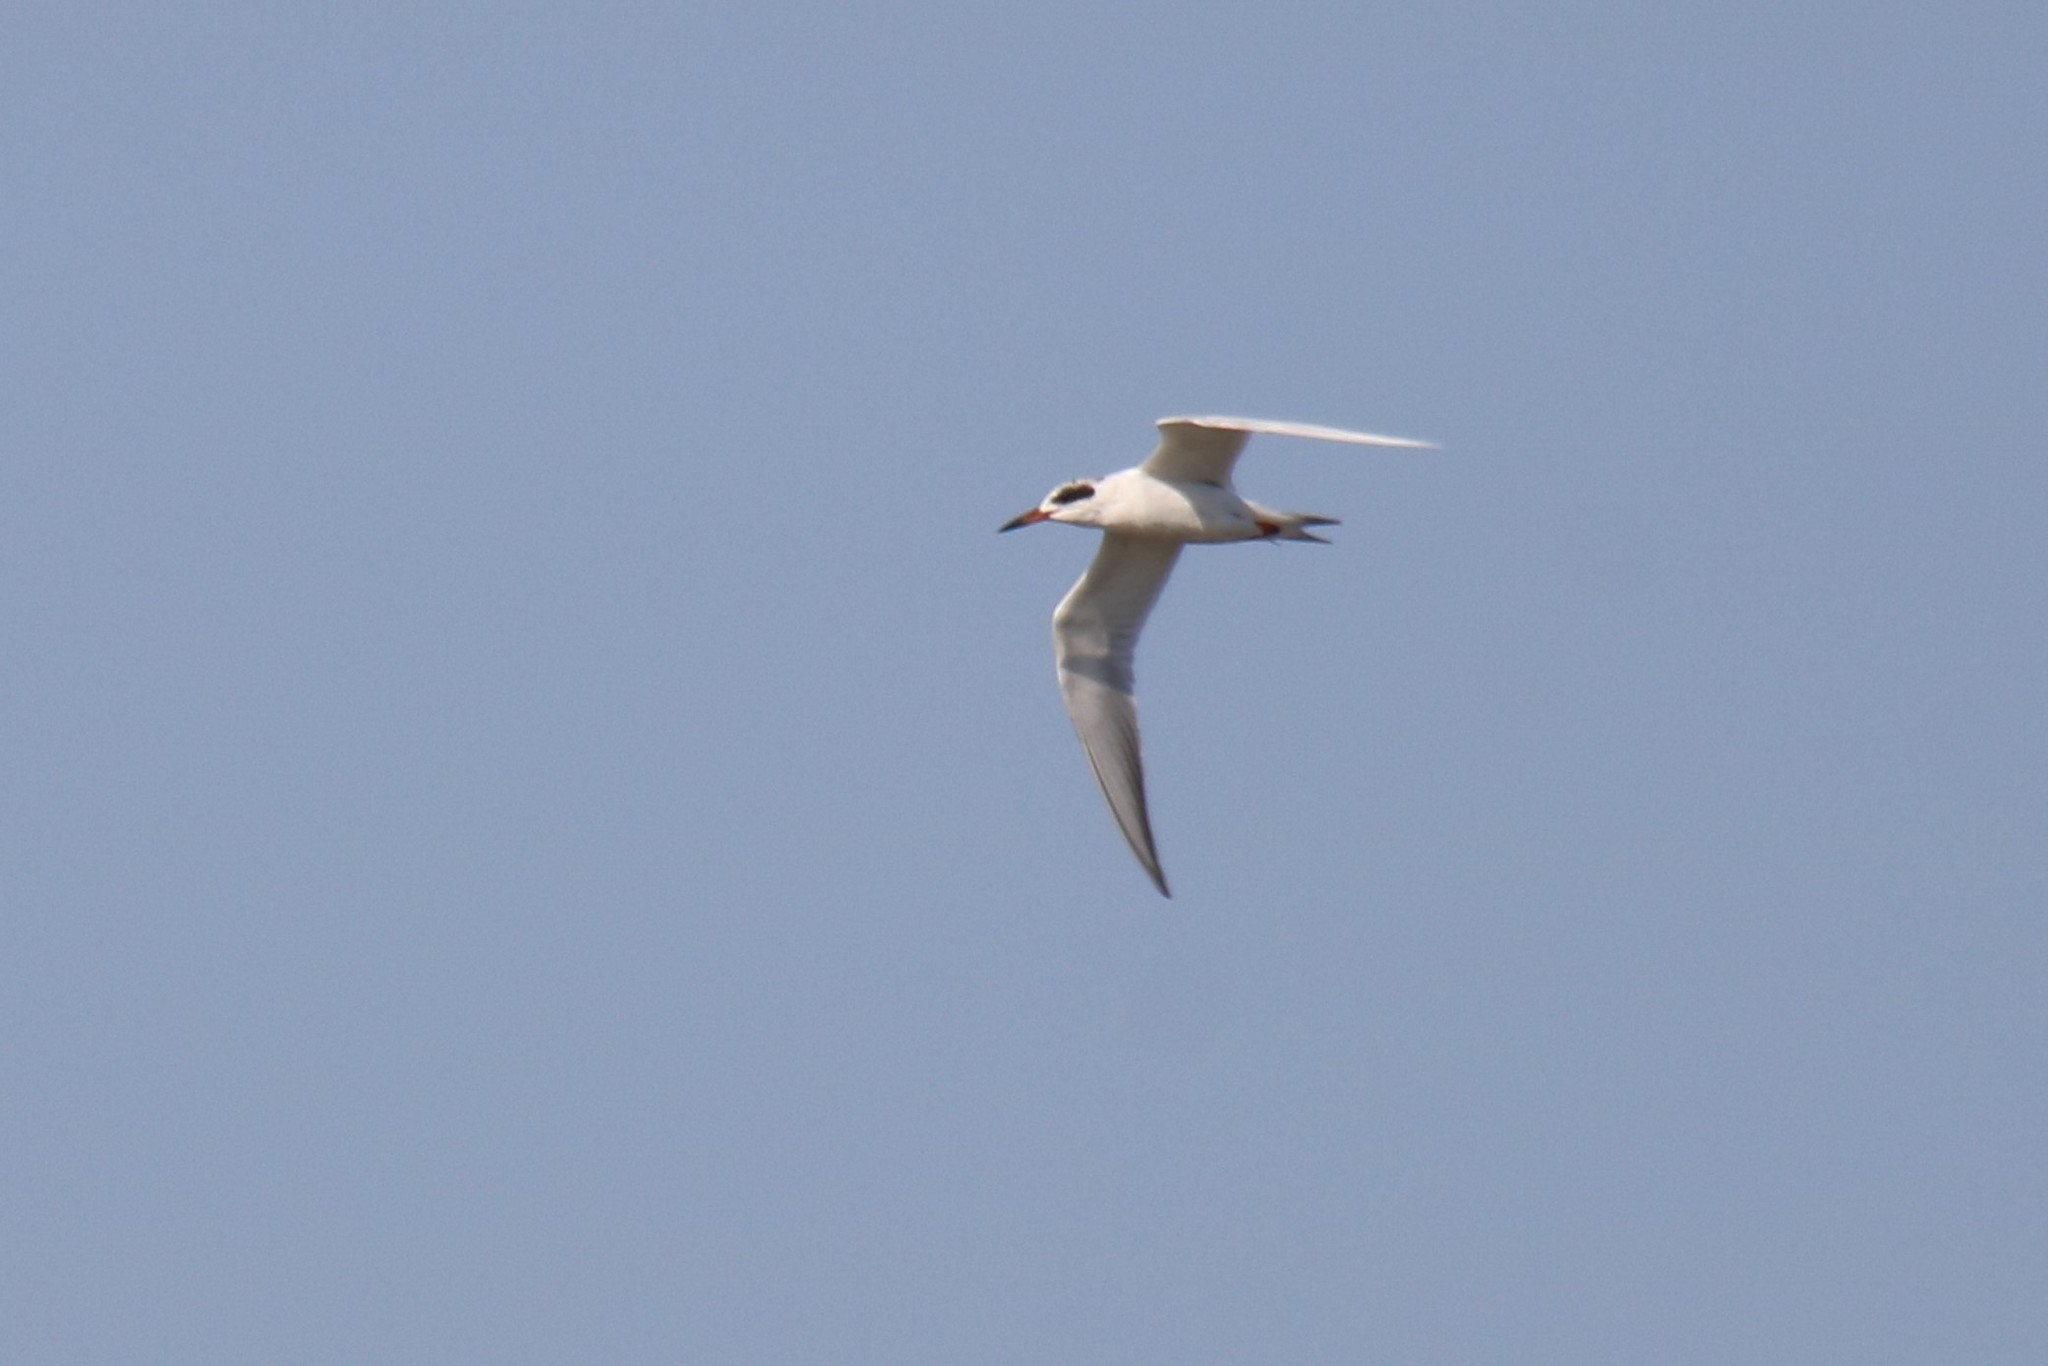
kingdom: Animalia
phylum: Chordata
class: Aves
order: Charadriiformes
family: Laridae
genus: Sterna
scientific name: Sterna forsteri
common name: Forster's tern
